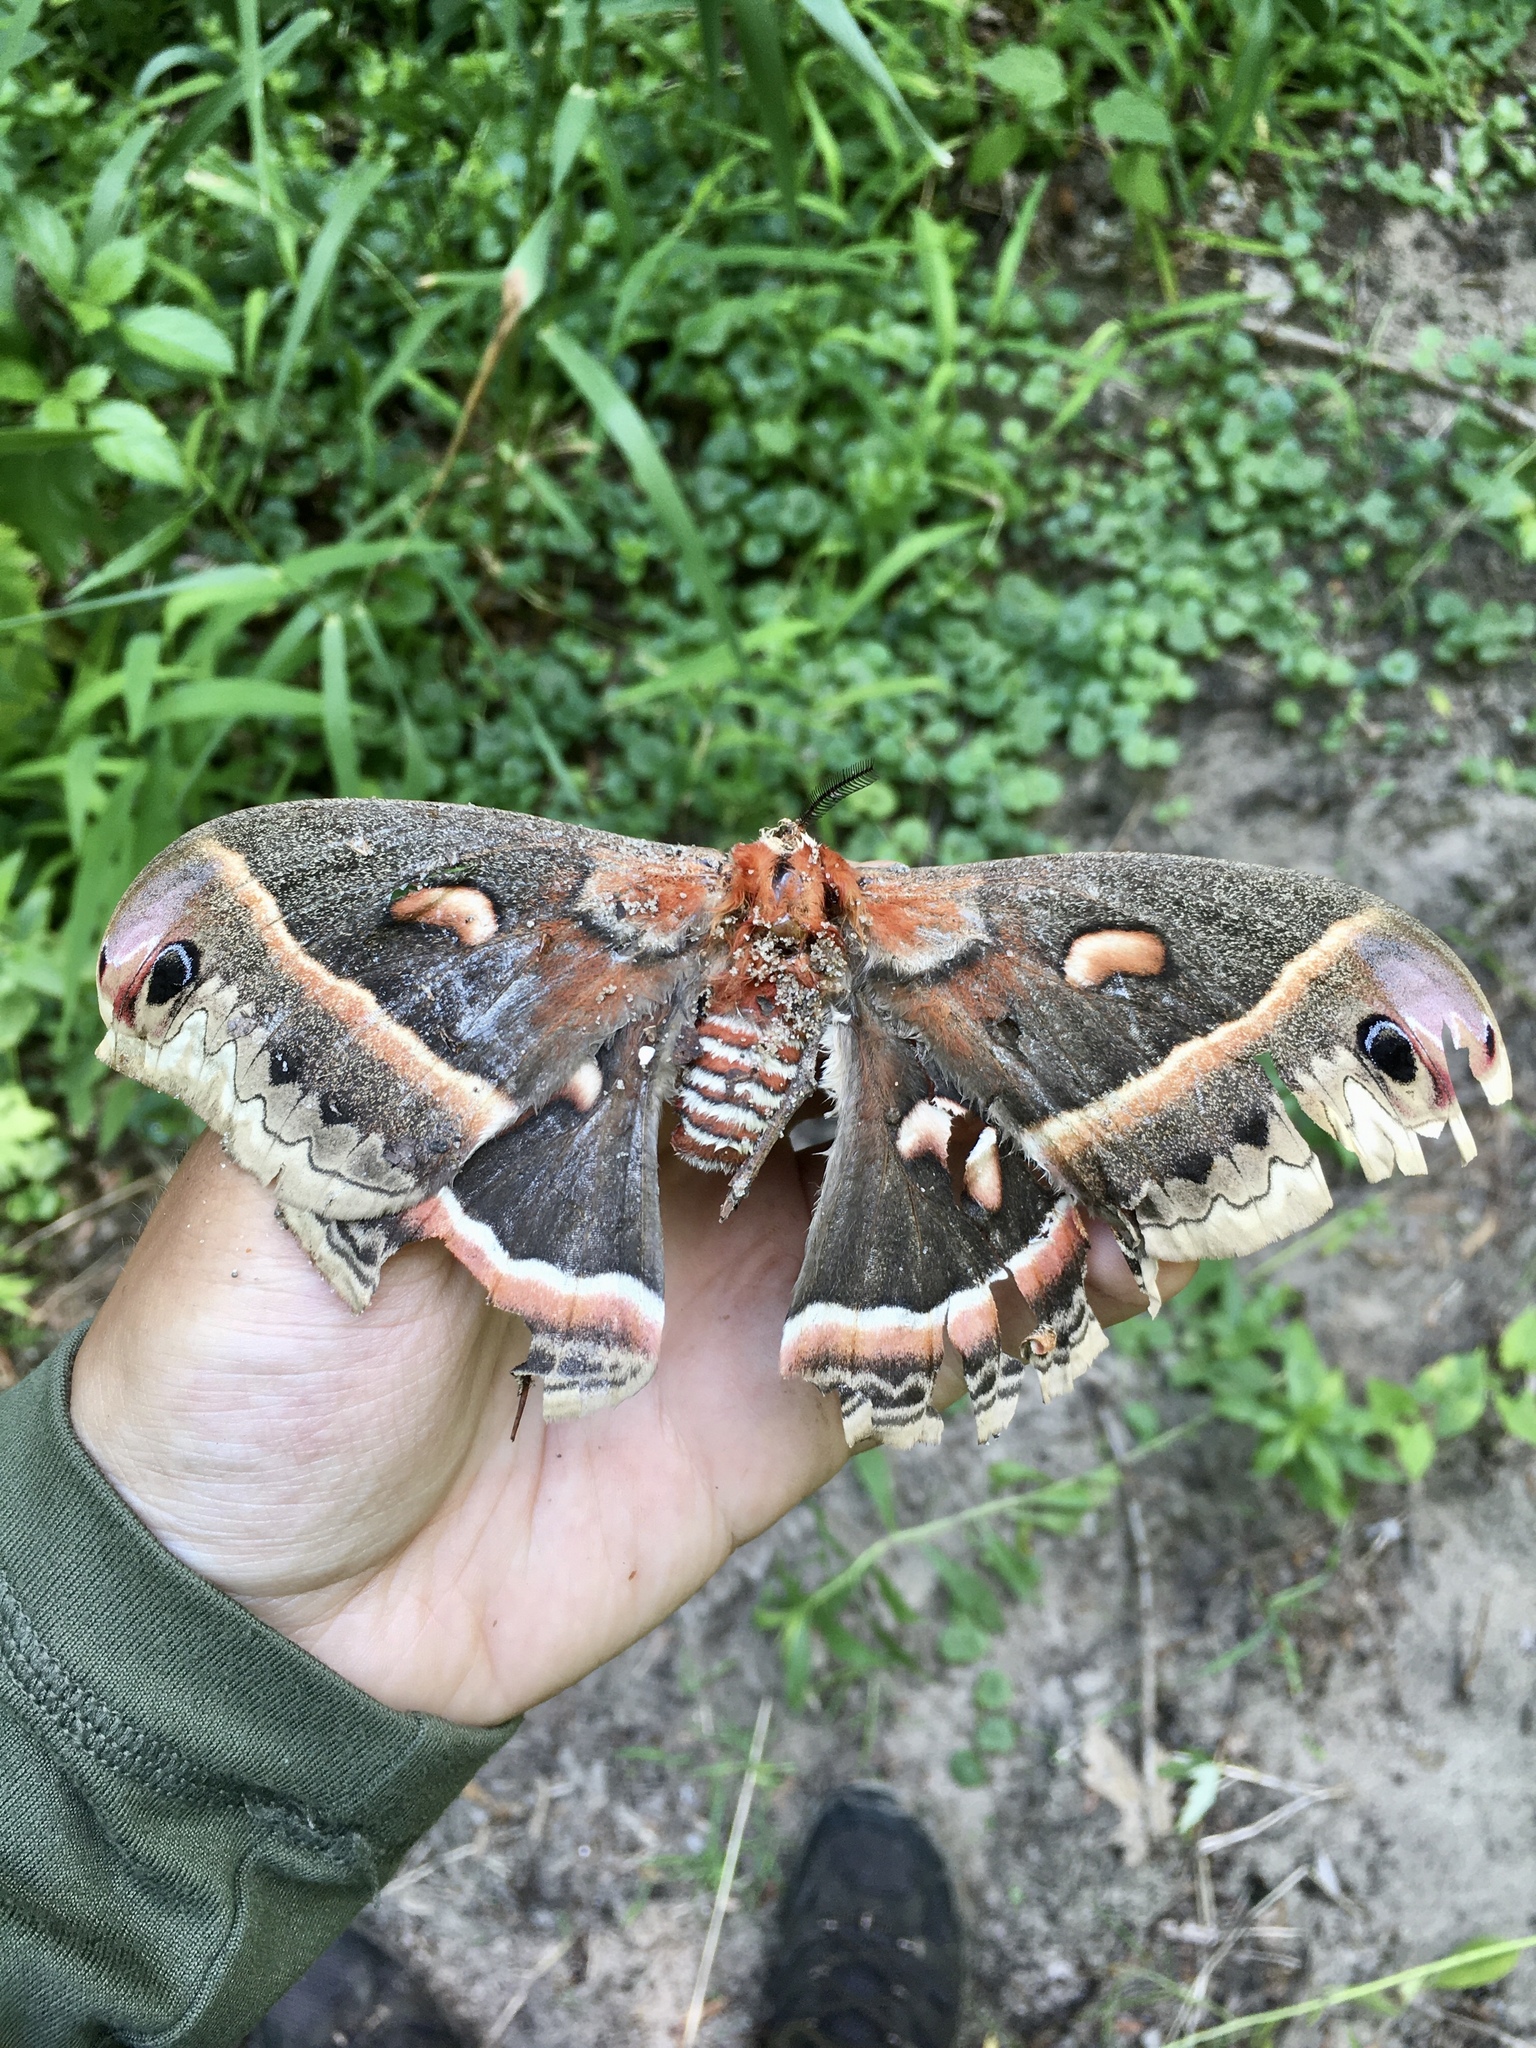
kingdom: Animalia
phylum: Arthropoda
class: Insecta
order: Lepidoptera
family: Saturniidae
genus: Hyalophora
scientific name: Hyalophora cecropia
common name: Cecropia silkmoth
